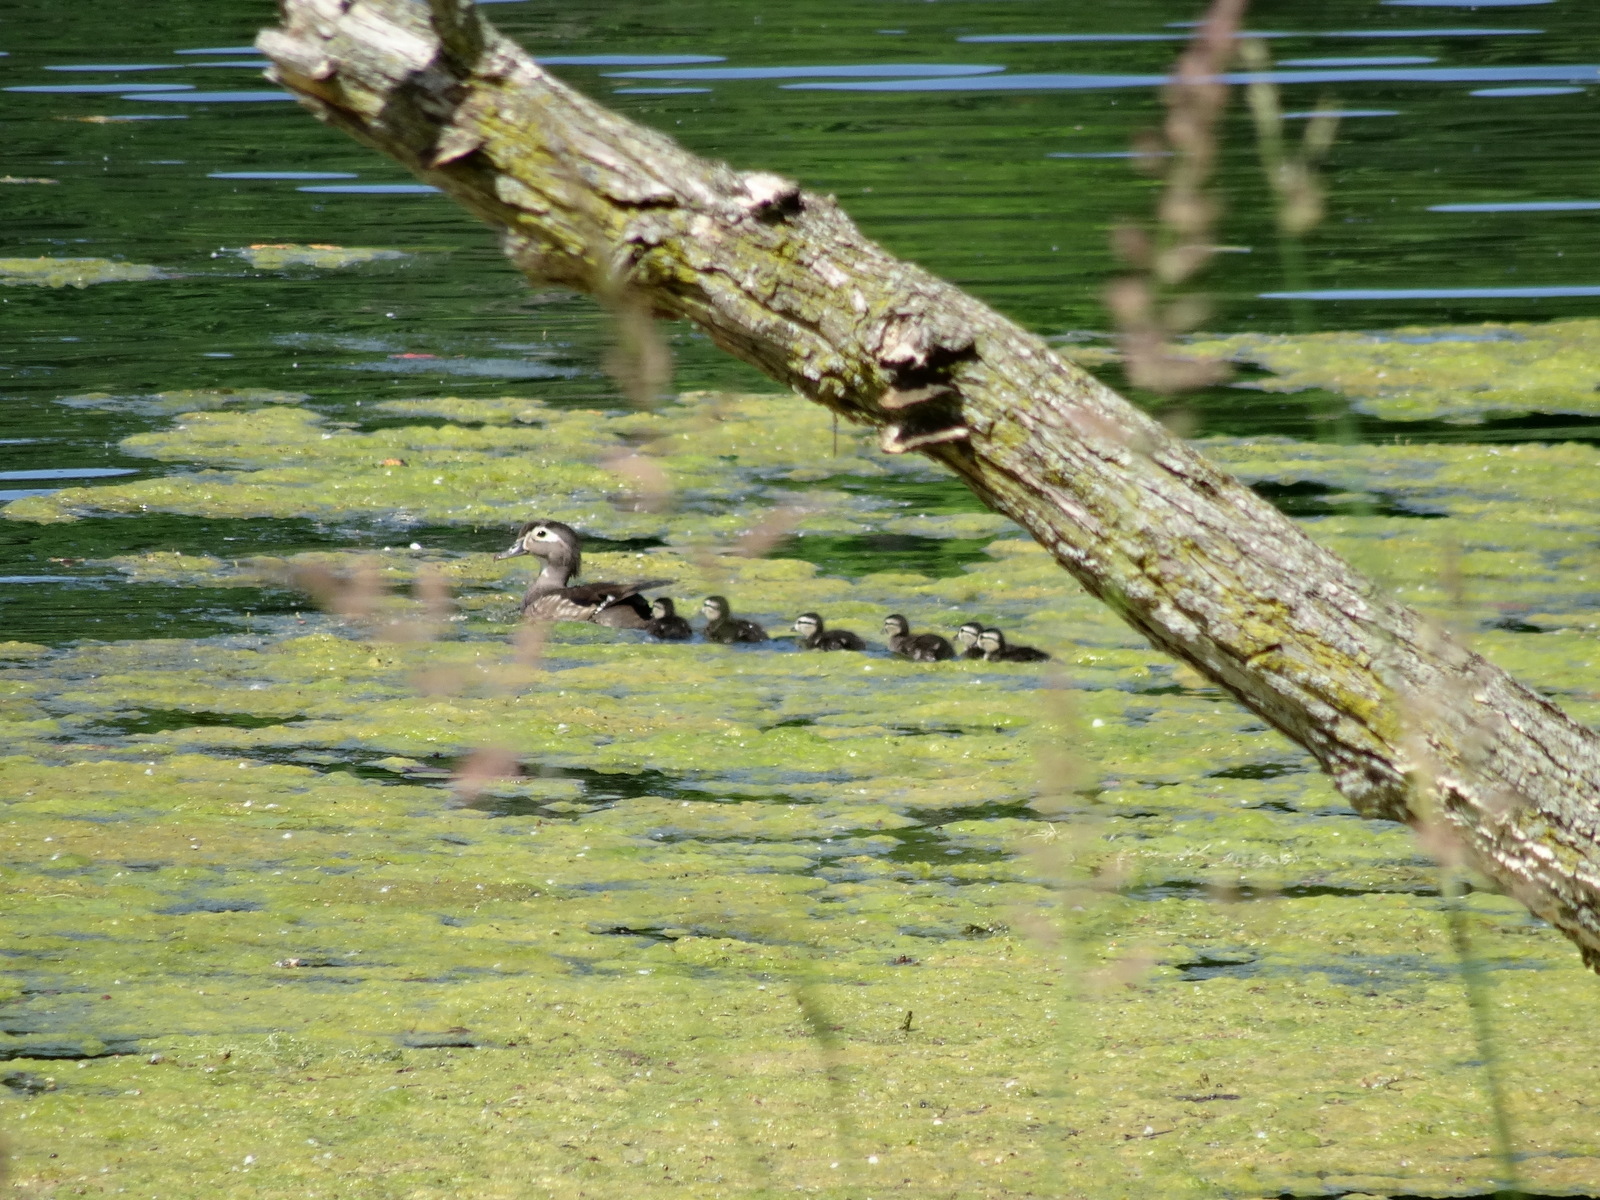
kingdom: Animalia
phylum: Chordata
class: Aves
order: Anseriformes
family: Anatidae
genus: Aix
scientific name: Aix sponsa
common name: Wood duck
